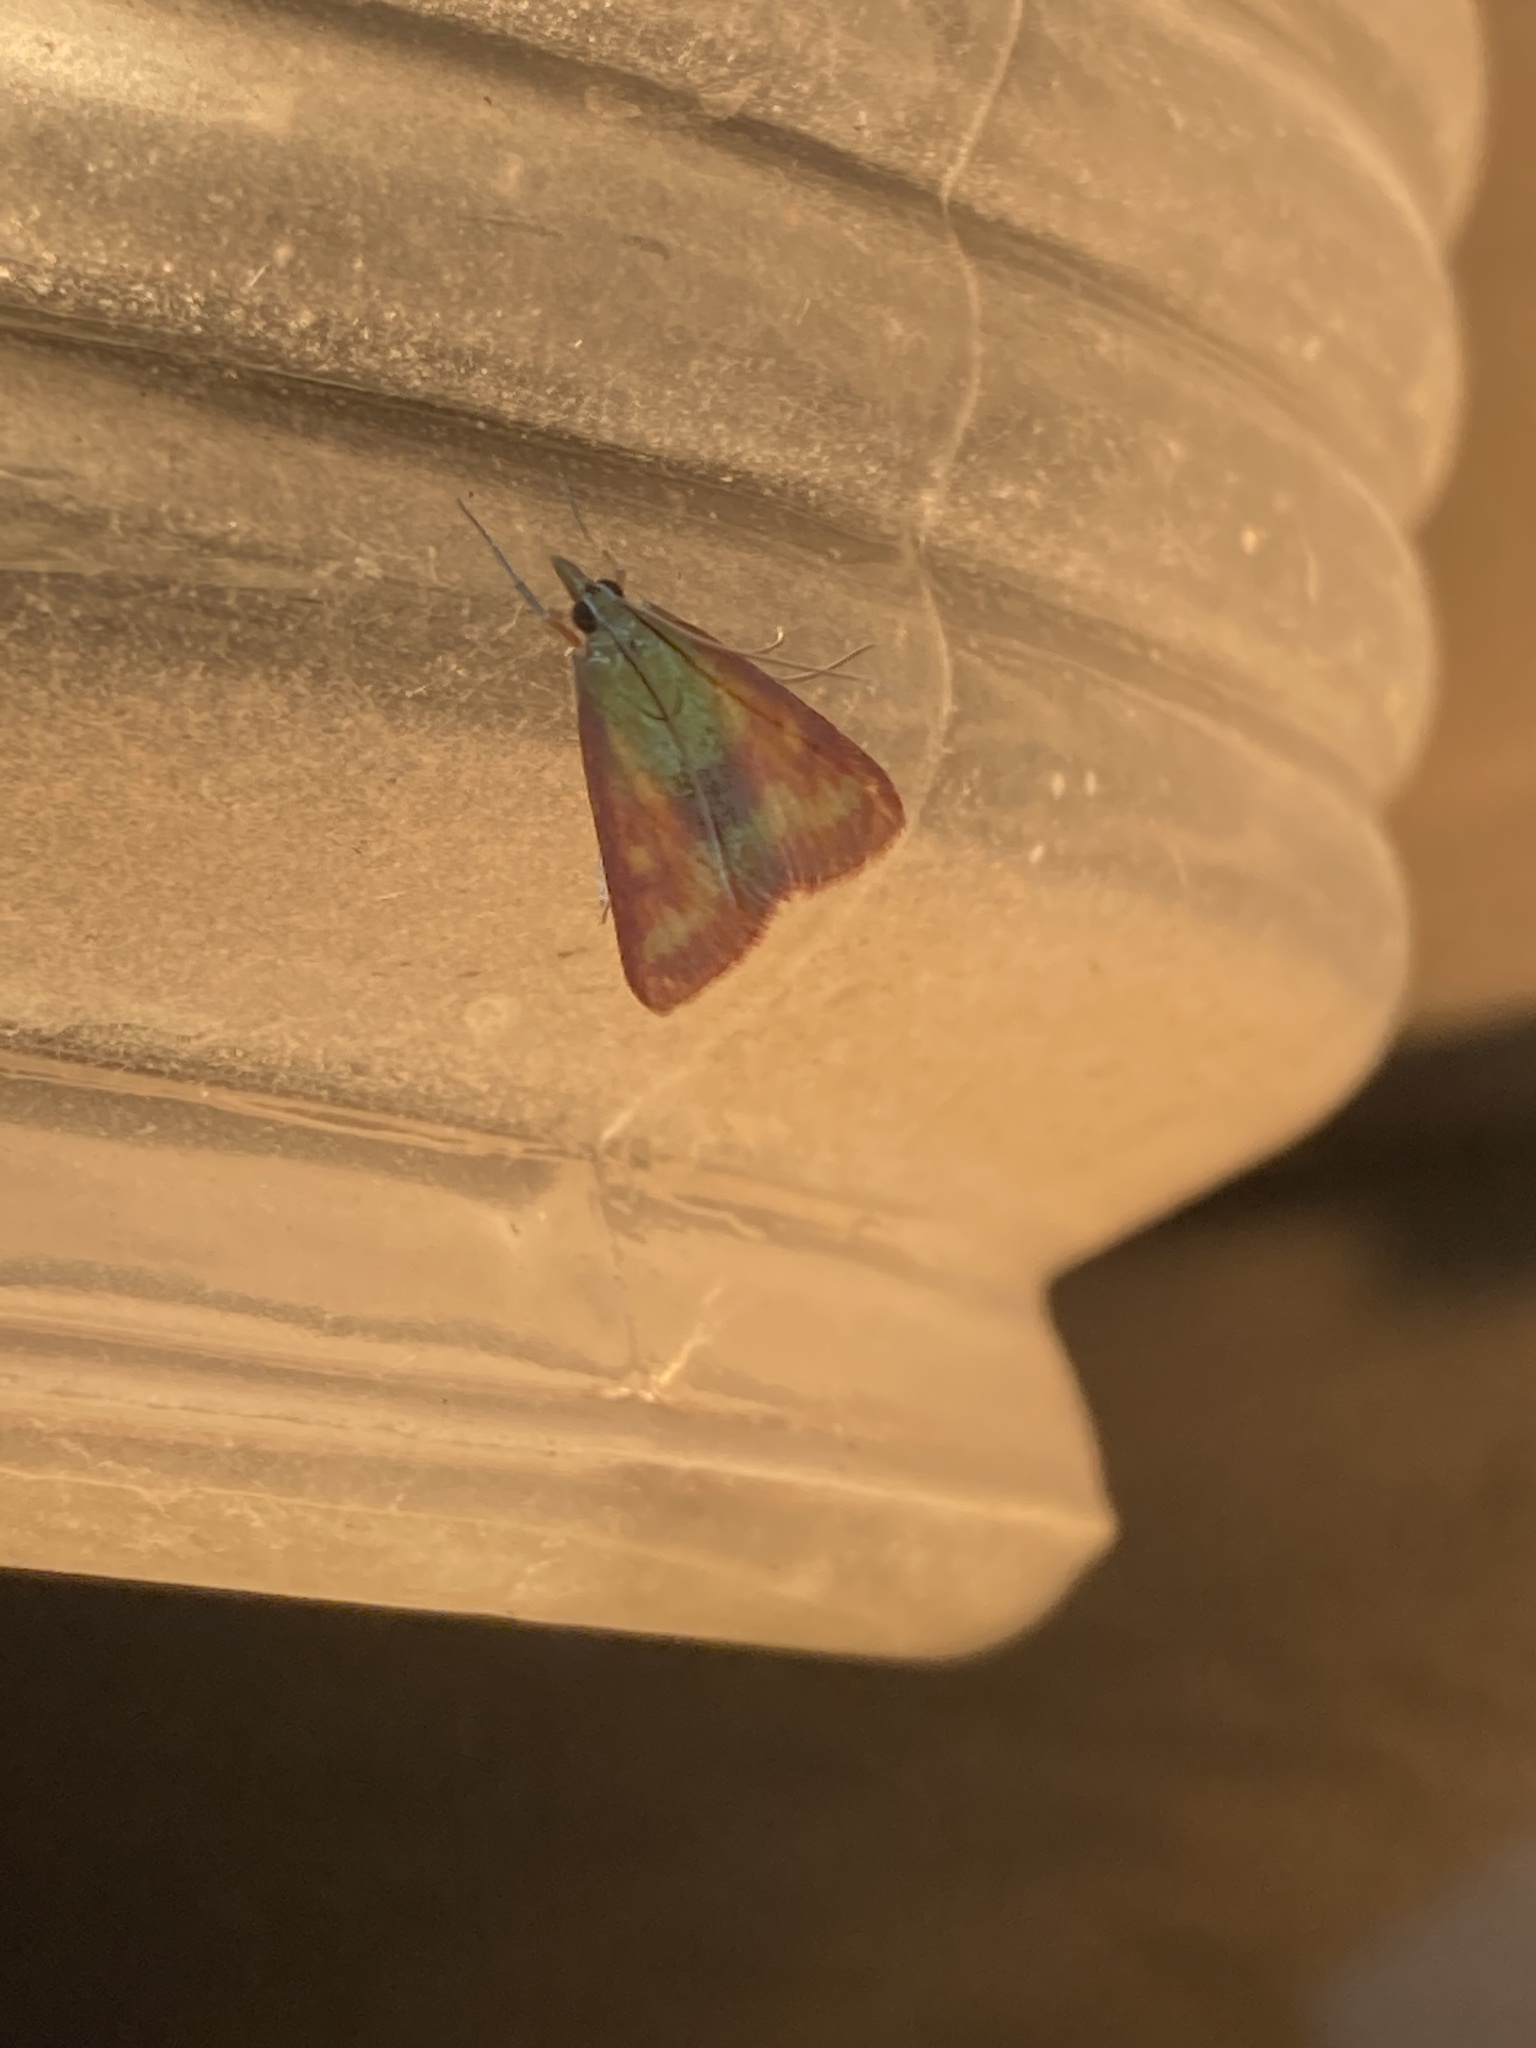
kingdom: Animalia
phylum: Arthropoda
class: Insecta
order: Lepidoptera
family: Crambidae
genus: Pyrausta
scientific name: Pyrausta laticlavia
